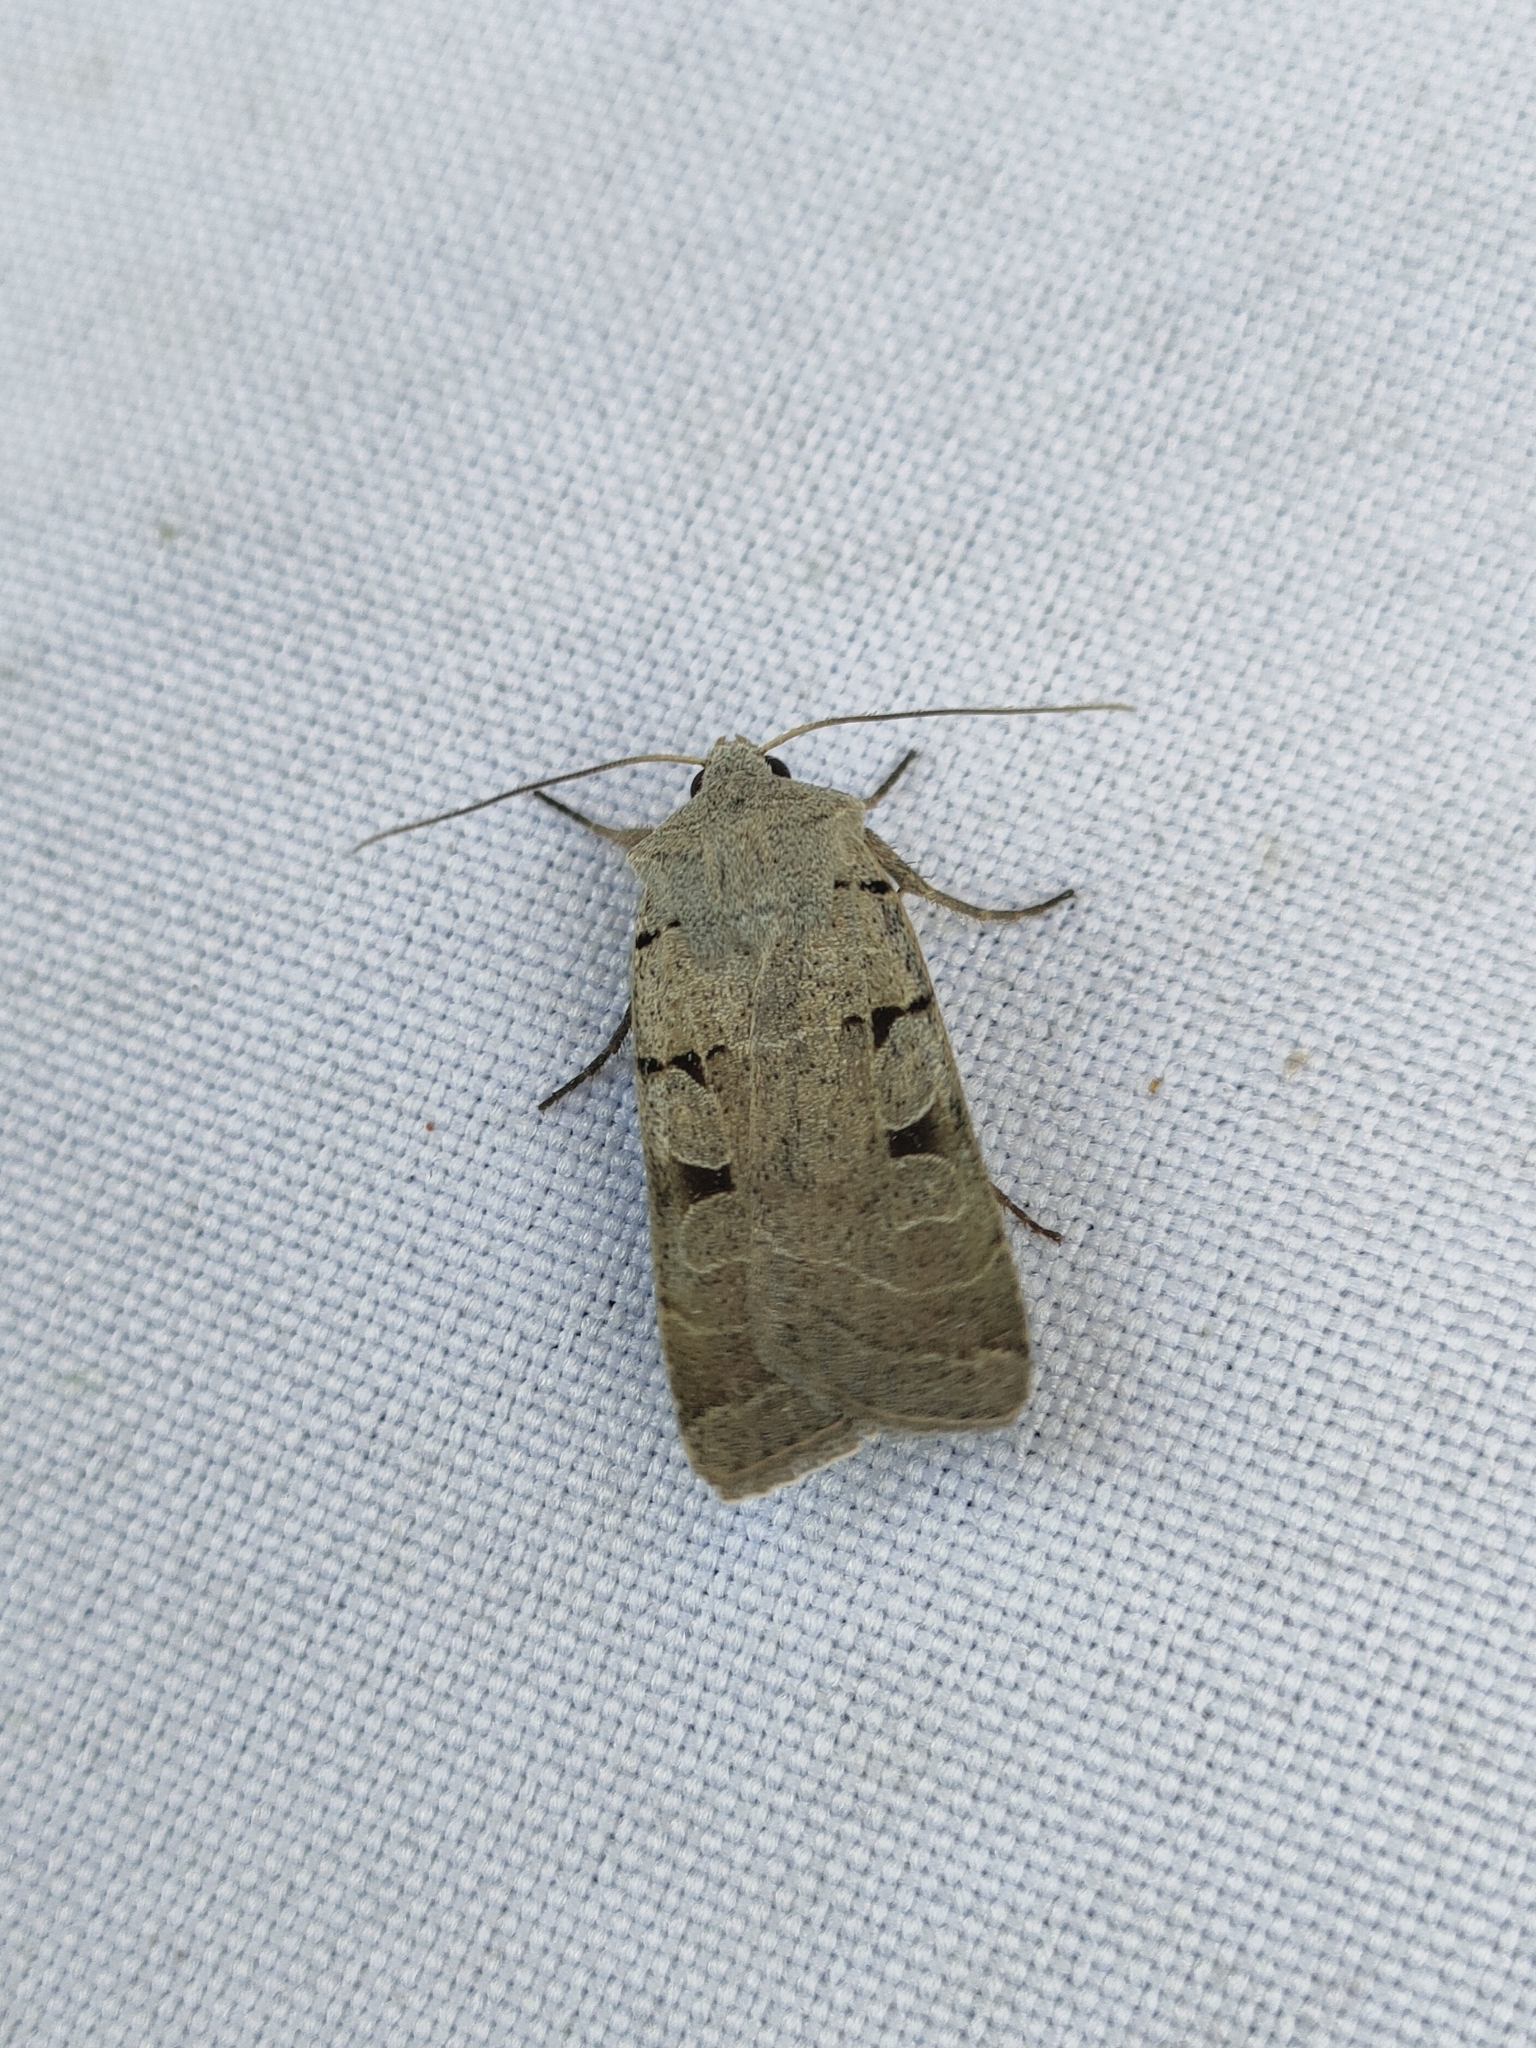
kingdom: Animalia
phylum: Arthropoda
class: Insecta
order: Lepidoptera
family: Noctuidae
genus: Eugnorisma
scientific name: Eugnorisma glareosa
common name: Autumnal rustic
